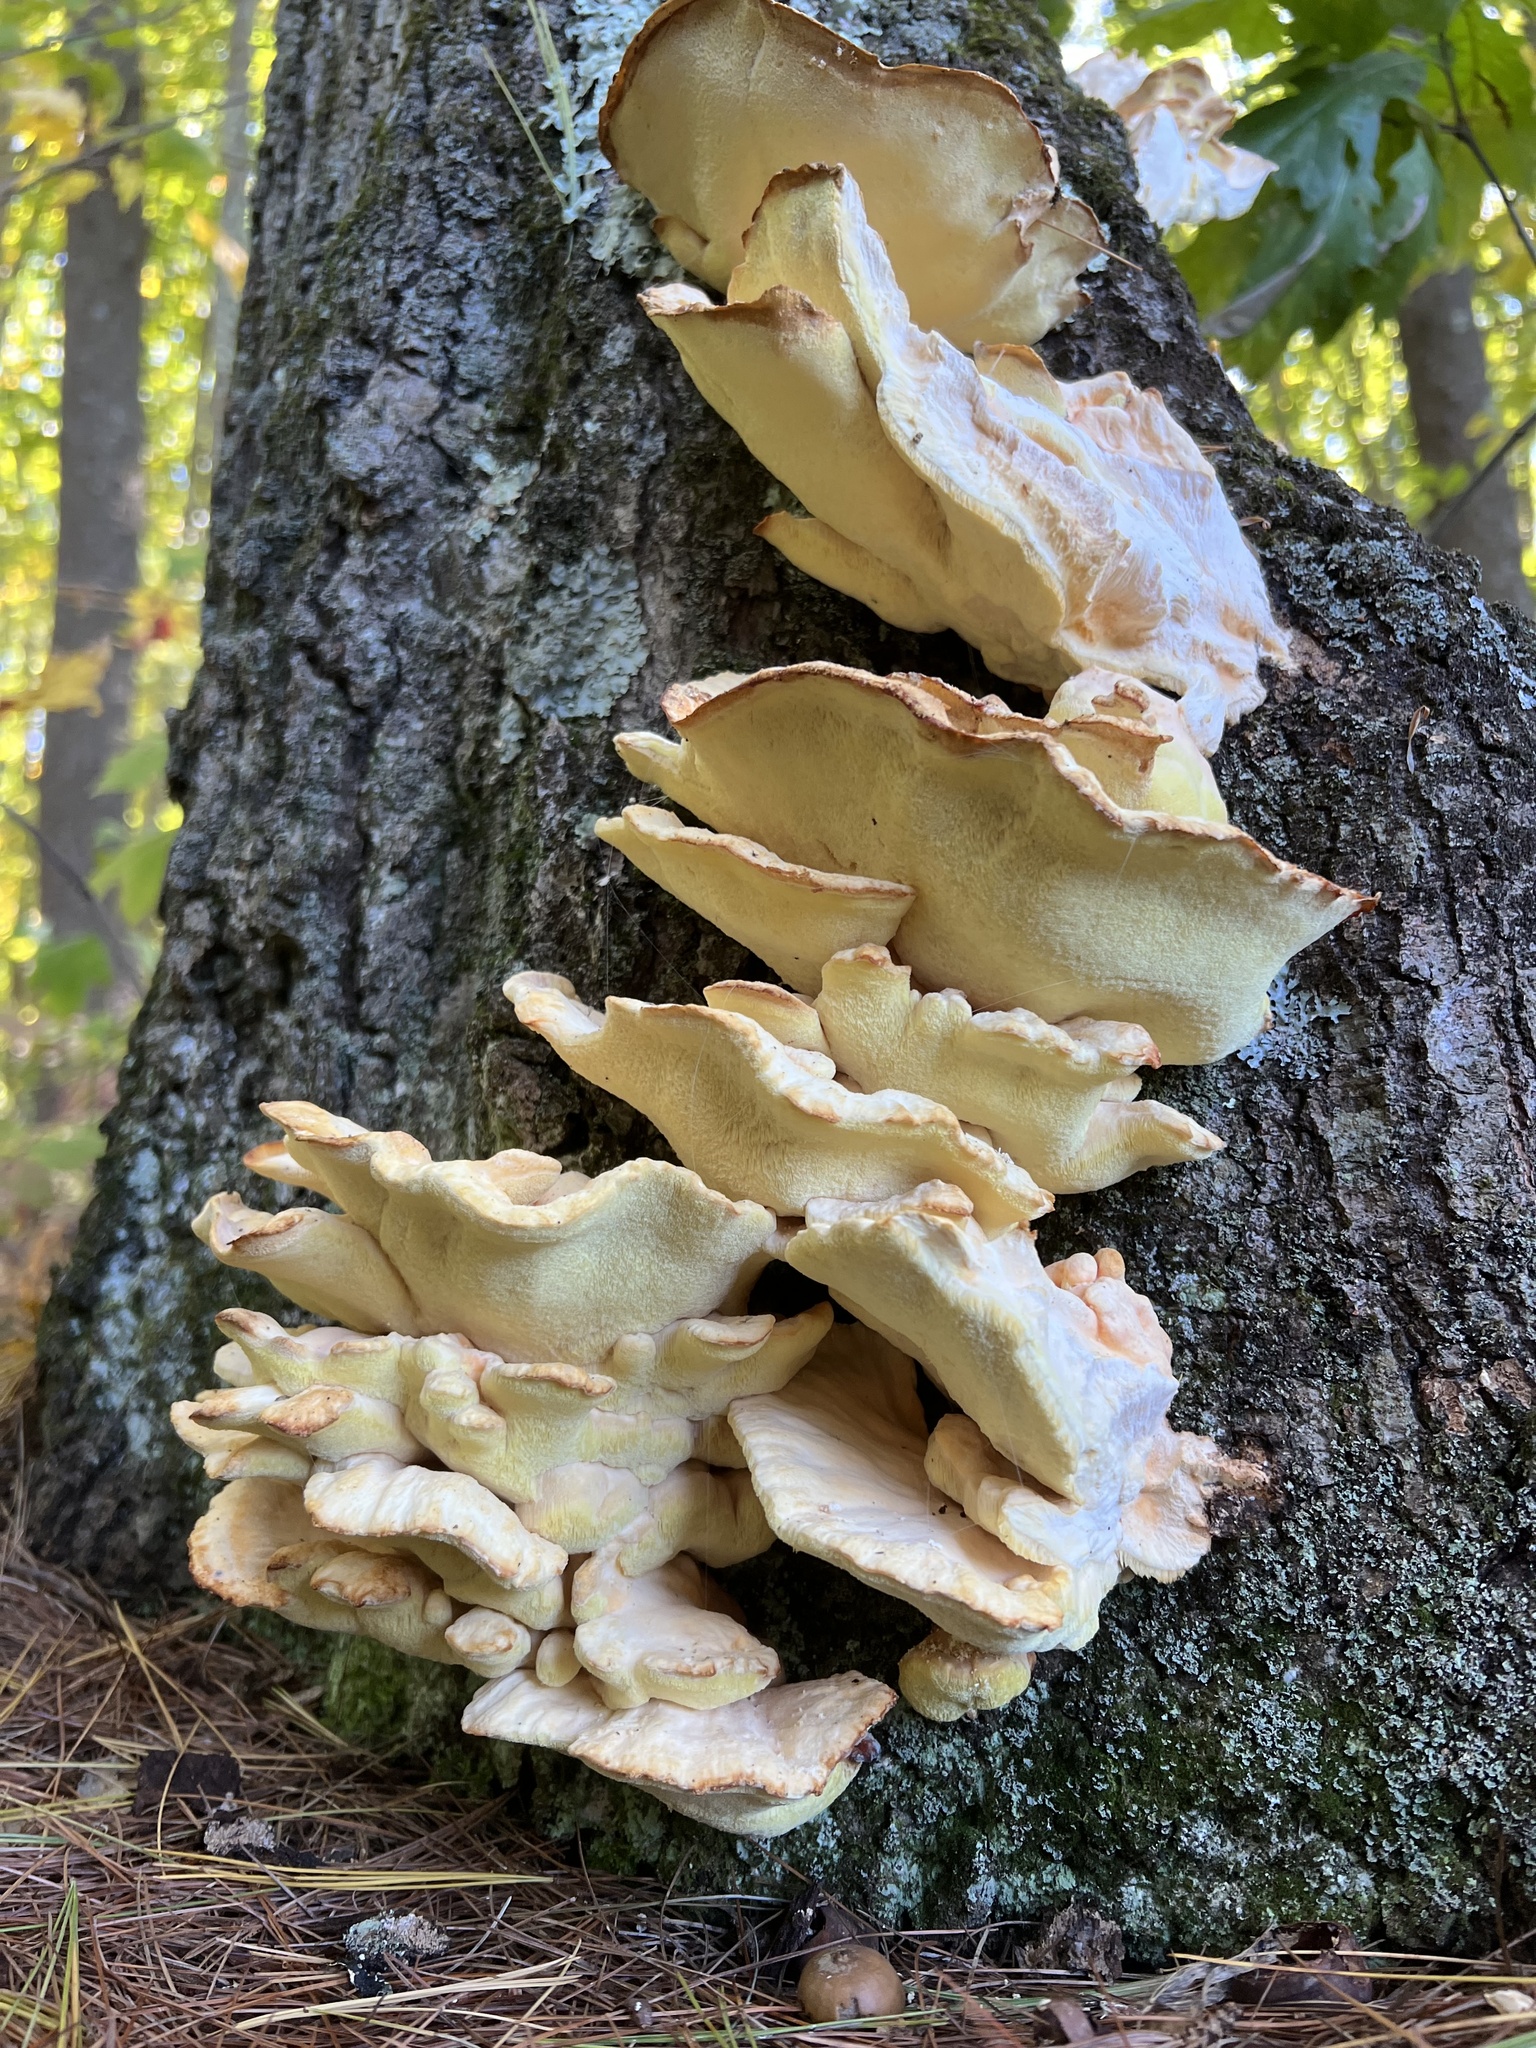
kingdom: Fungi
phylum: Basidiomycota
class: Agaricomycetes
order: Polyporales
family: Laetiporaceae
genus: Laetiporus
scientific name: Laetiporus sulphureus
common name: Chicken of the woods
